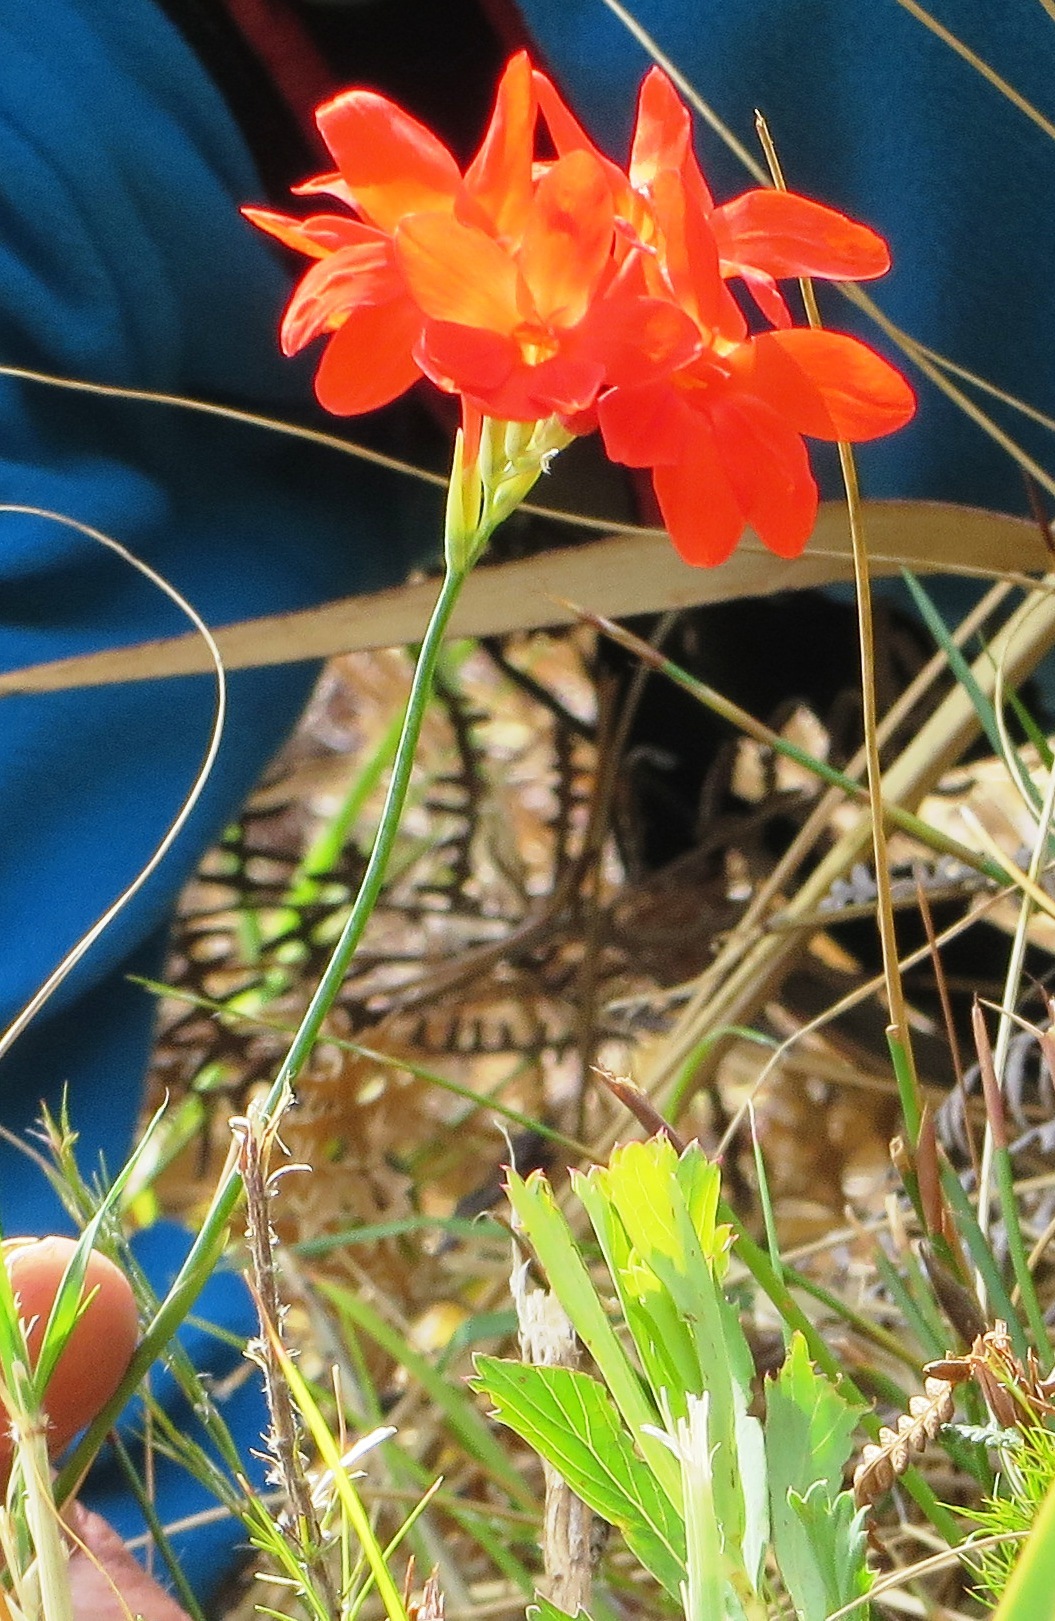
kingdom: Plantae
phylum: Tracheophyta
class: Liliopsida
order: Asparagales
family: Iridaceae
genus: Gladiolus
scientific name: Gladiolus nerineoides
